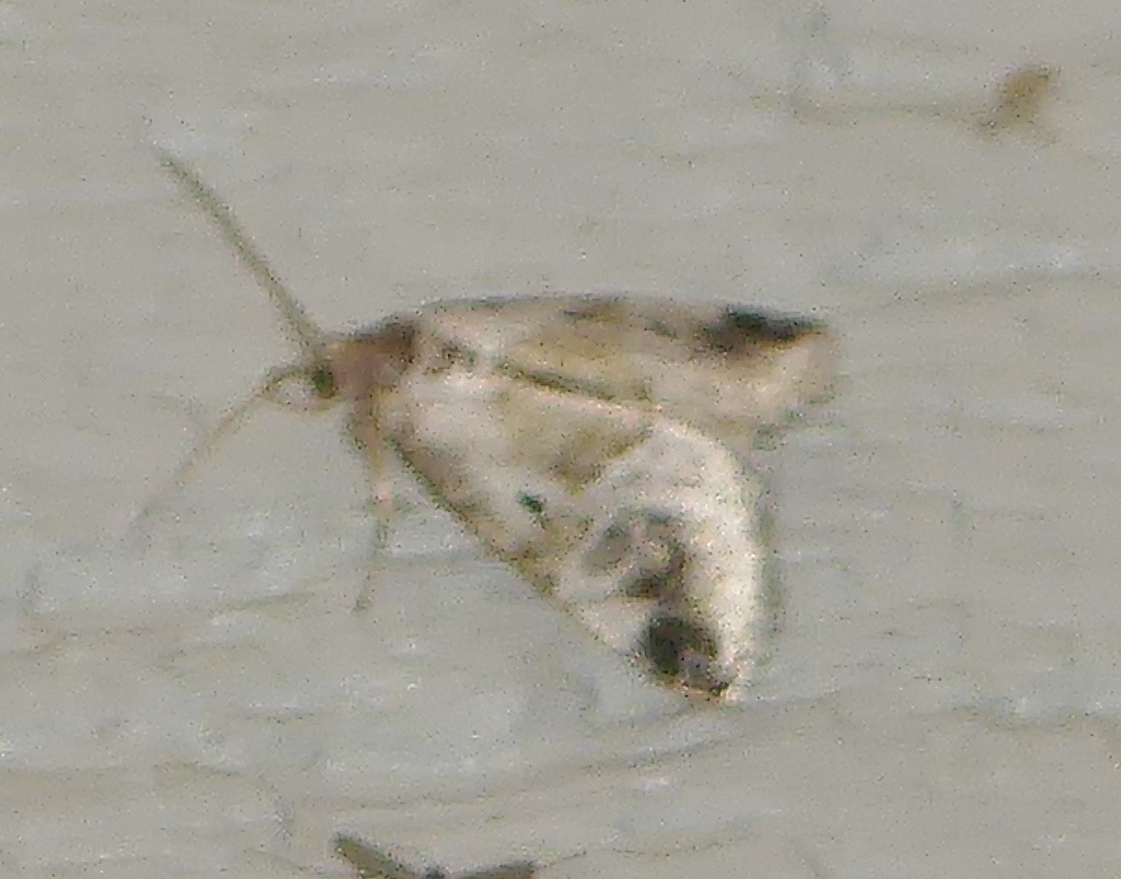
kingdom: Animalia
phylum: Arthropoda
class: Insecta
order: Lepidoptera
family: Noctuidae
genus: Maliattha
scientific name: Maliattha synochitis
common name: Black-dotted glyph
